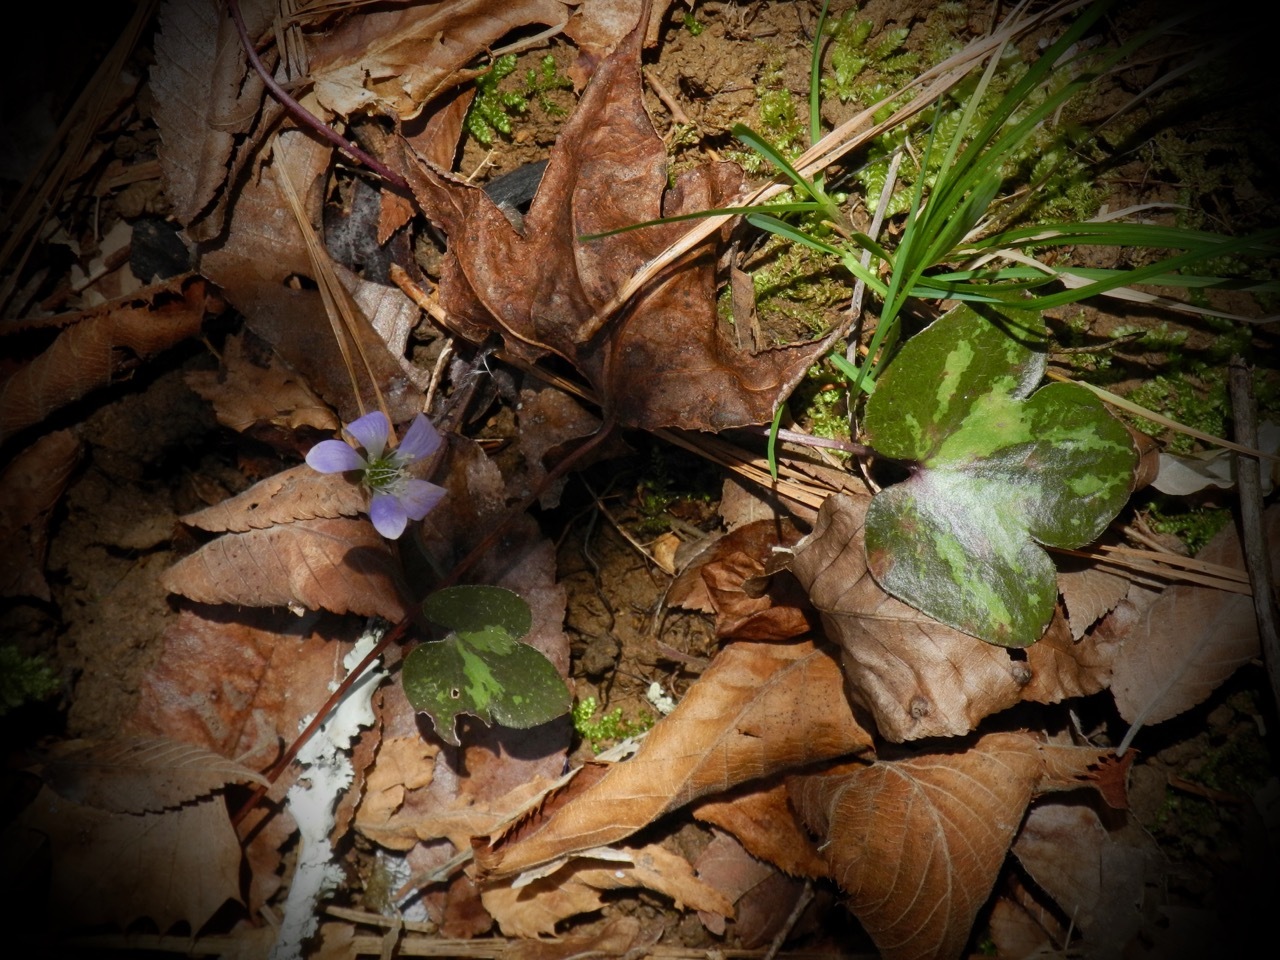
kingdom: Plantae
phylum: Tracheophyta
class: Magnoliopsida
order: Ranunculales
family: Ranunculaceae
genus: Hepatica
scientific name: Hepatica americana
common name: American hepatica
